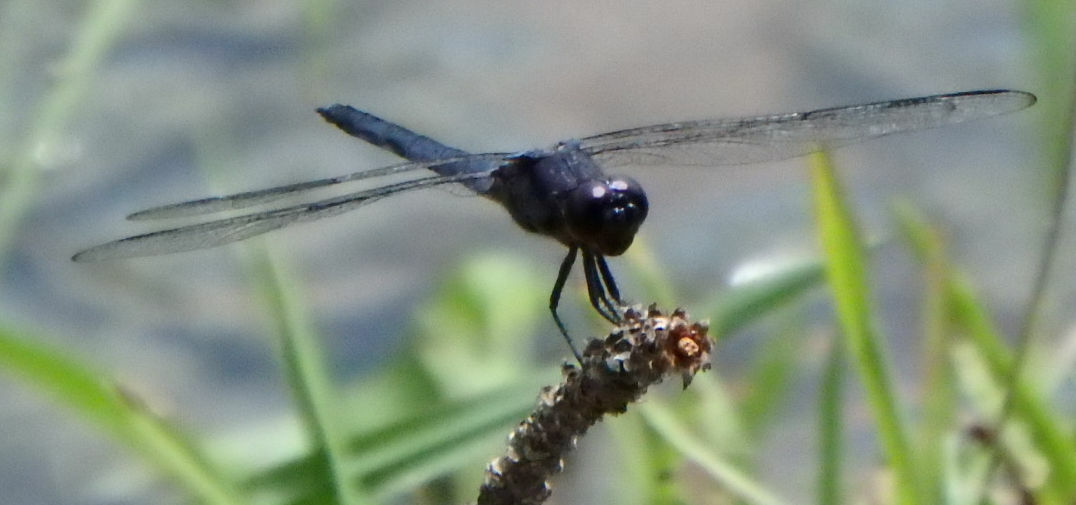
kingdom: Animalia
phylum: Arthropoda
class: Insecta
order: Odonata
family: Libellulidae
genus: Libellula
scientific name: Libellula incesta
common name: Slaty skimmer
